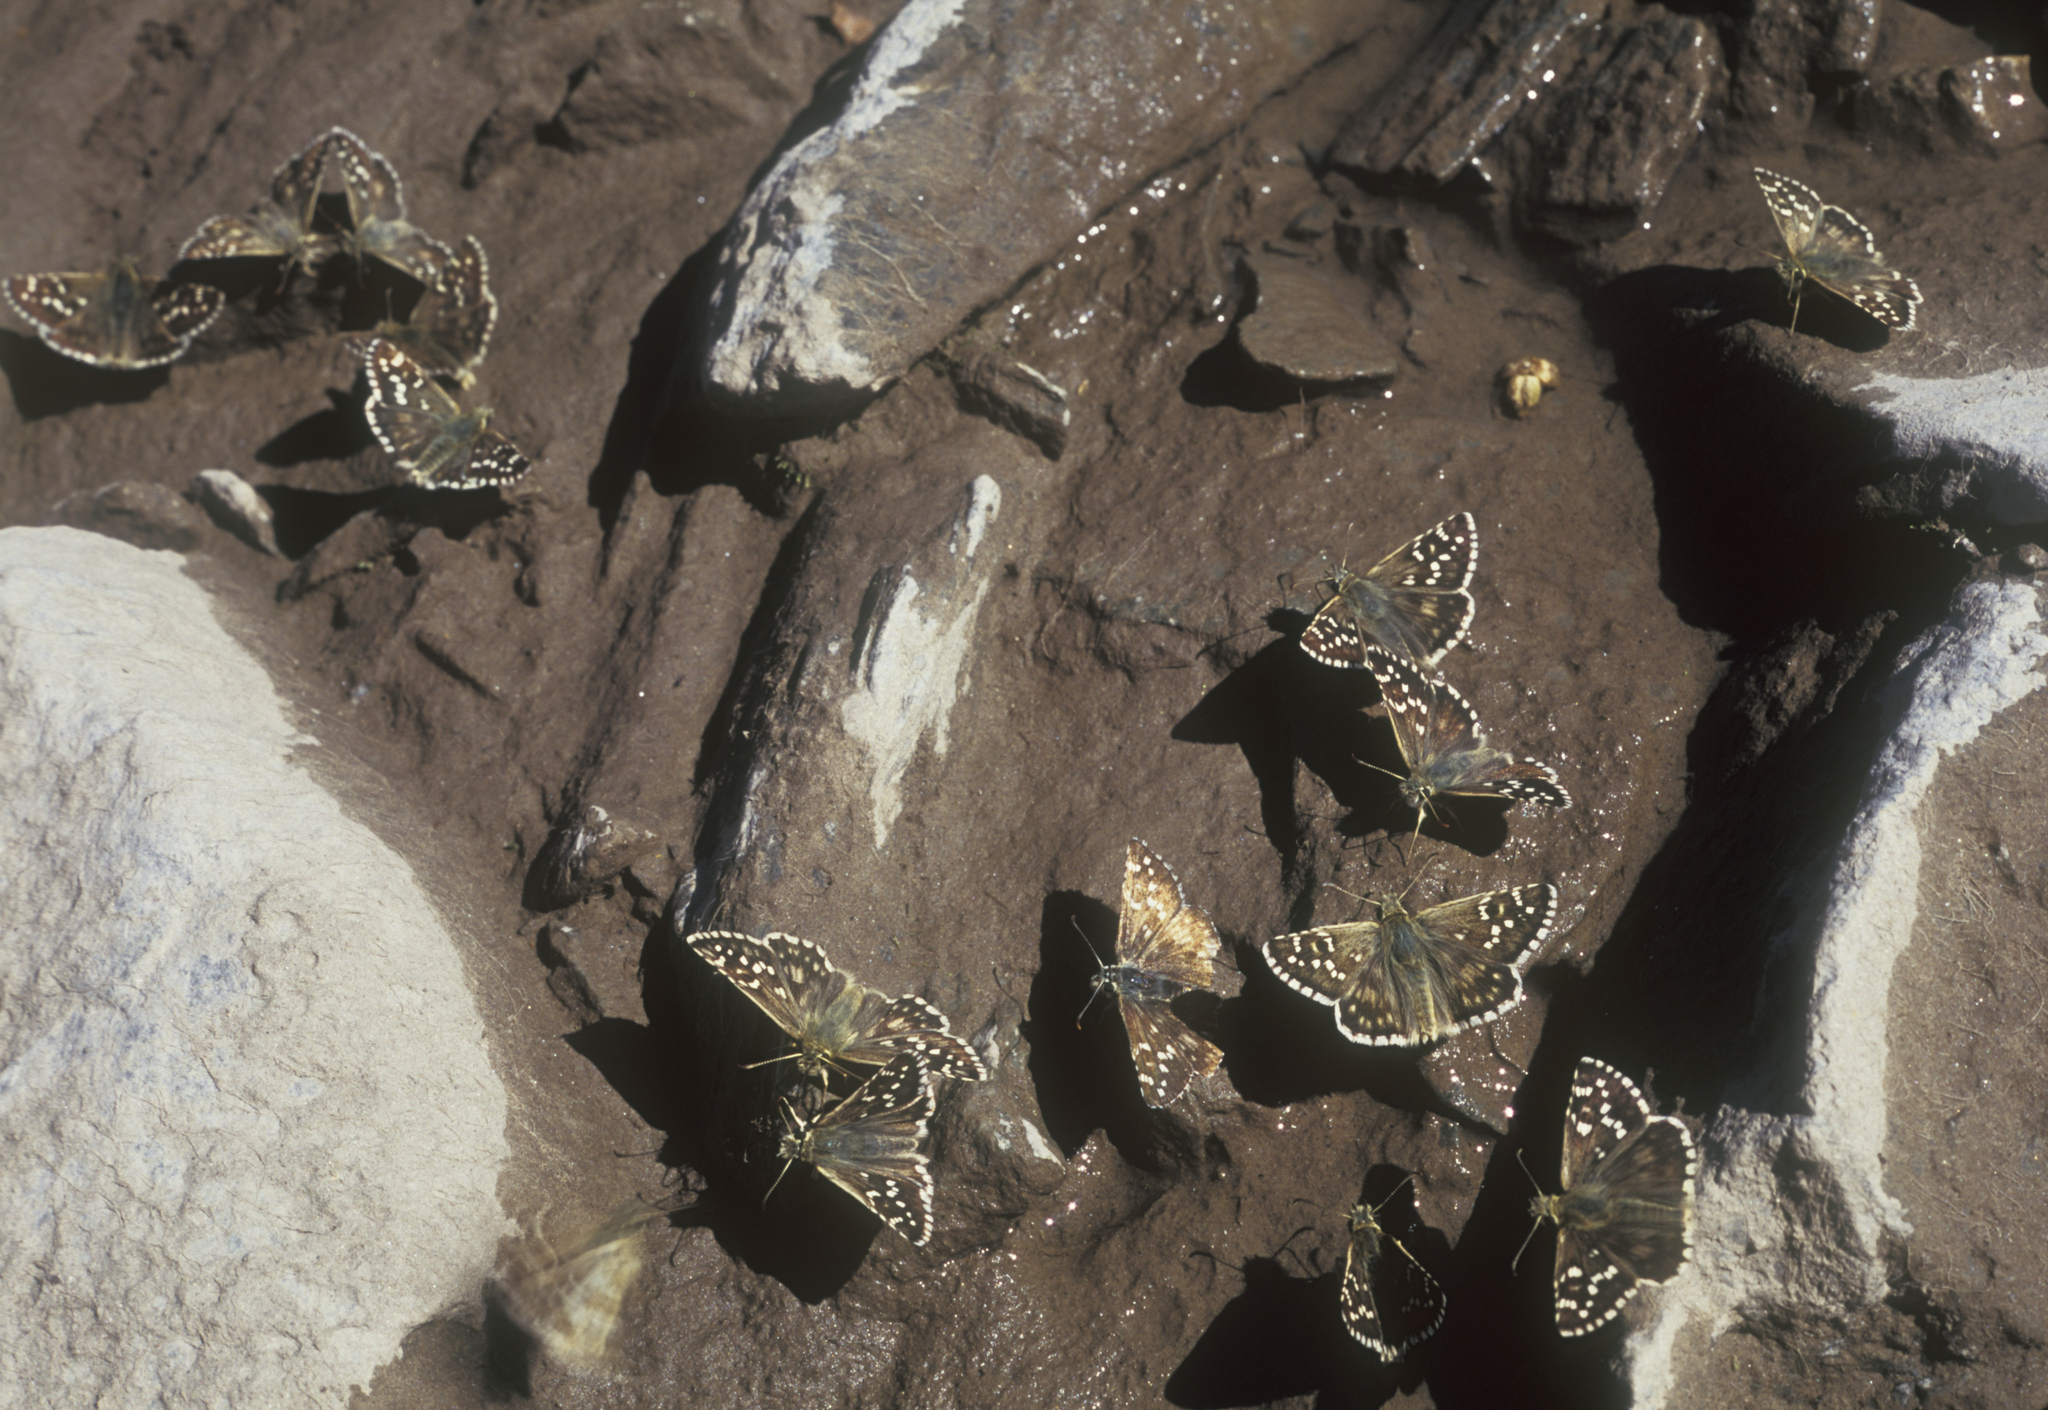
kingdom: Animalia
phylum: Arthropoda
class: Insecta
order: Lepidoptera
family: Hesperiidae
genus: Pyrgus
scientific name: Pyrgus alveus
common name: Large grizzled skipper
